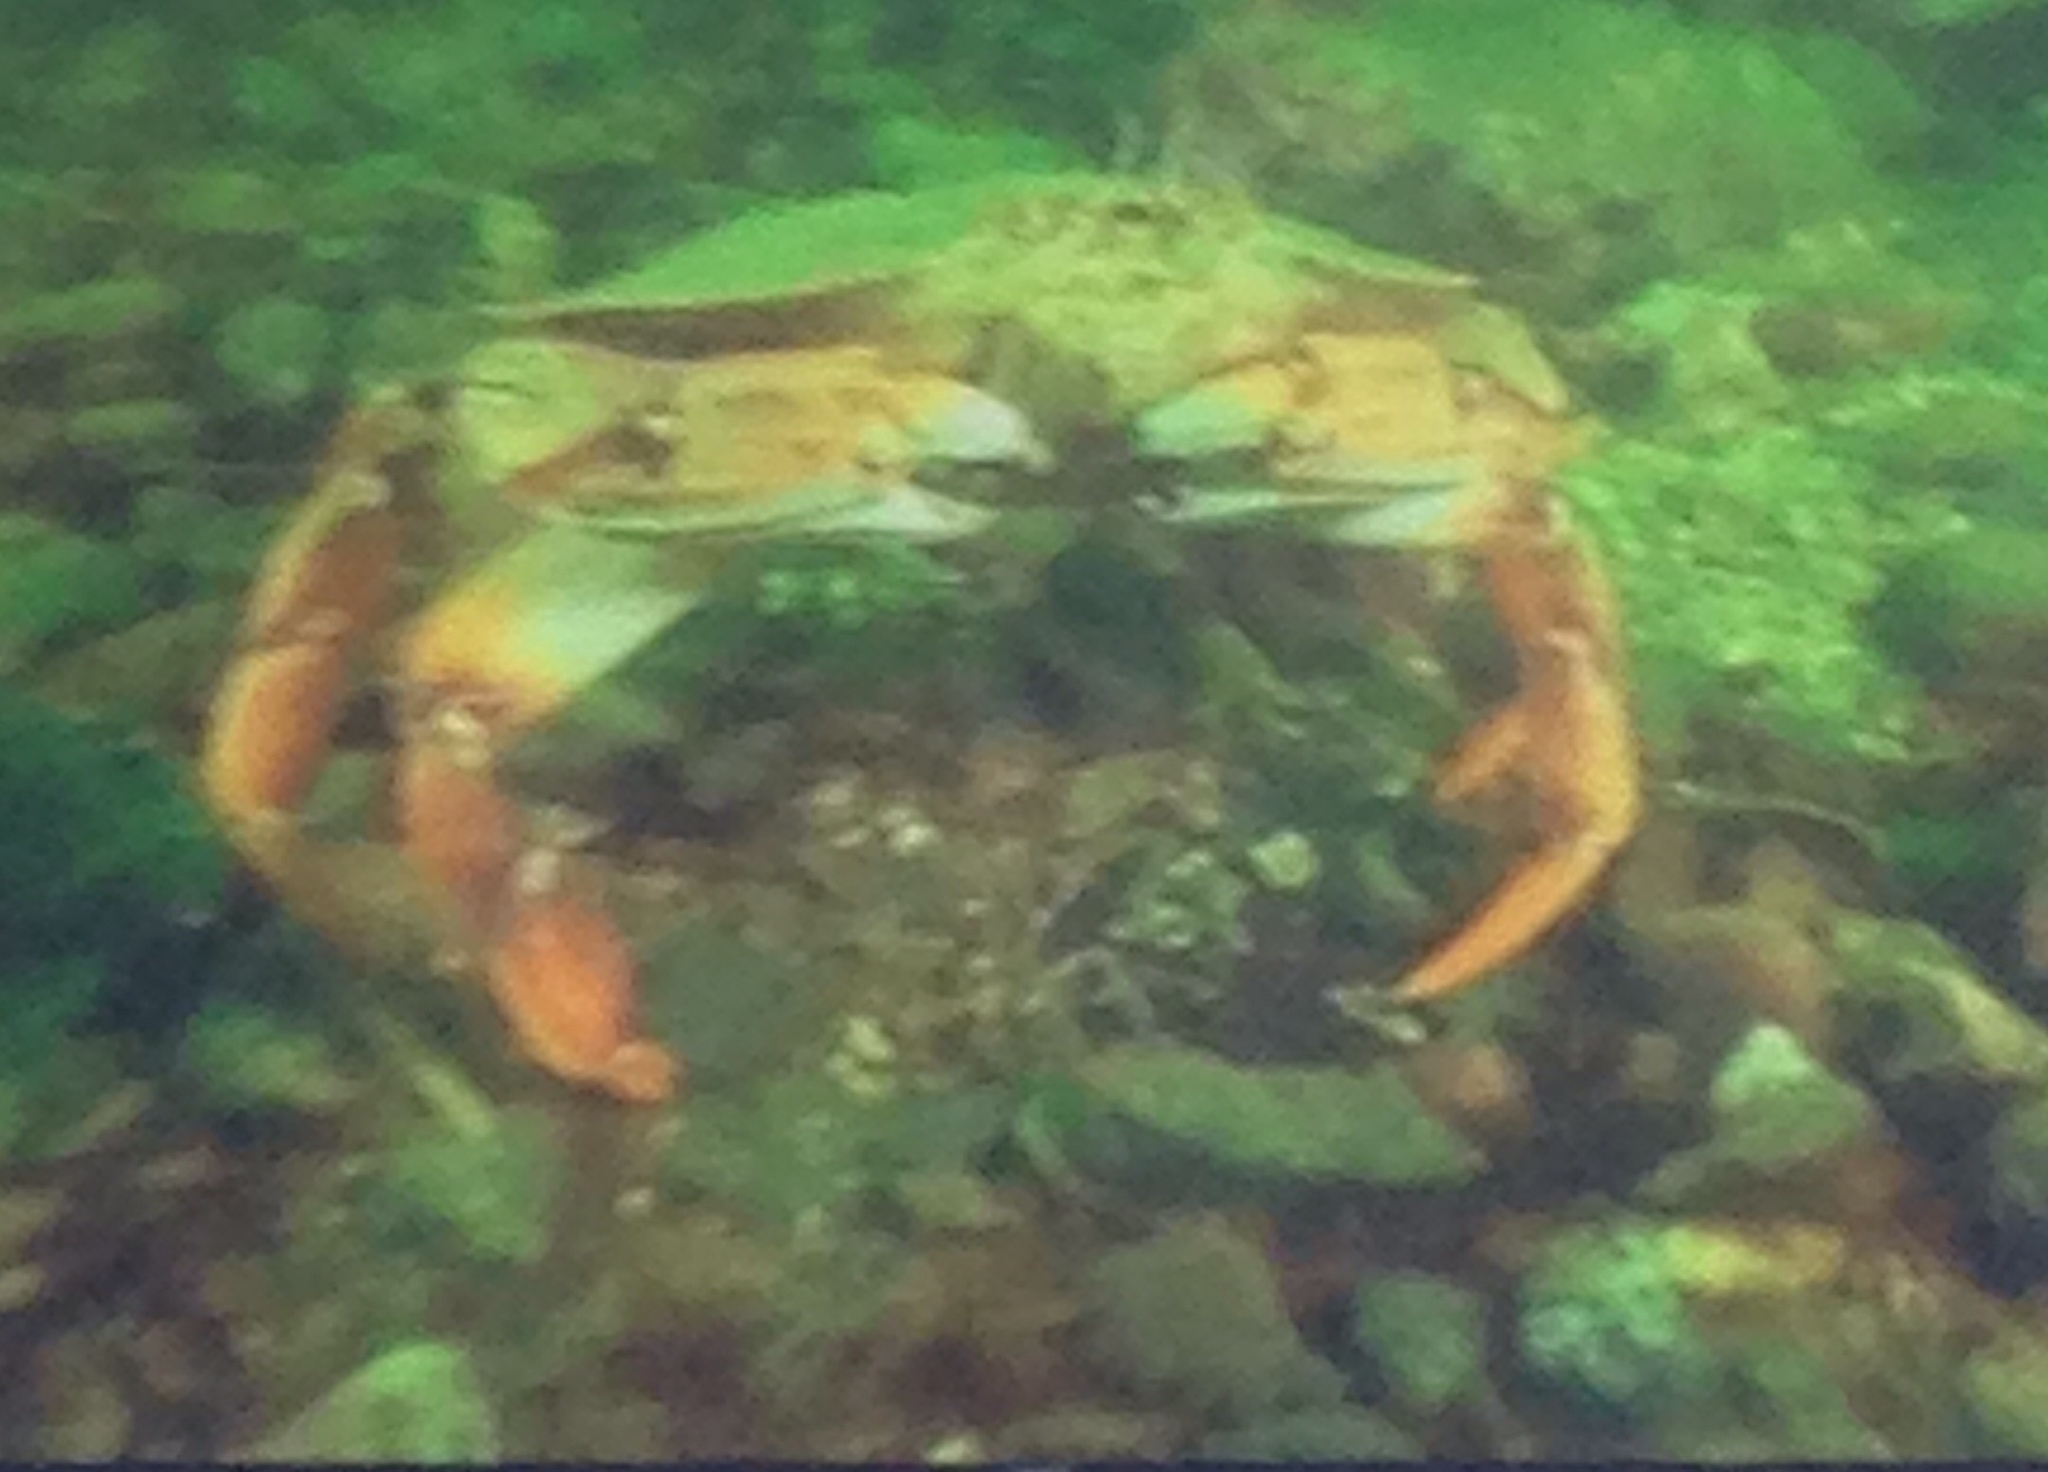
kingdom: Animalia
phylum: Arthropoda
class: Malacostraca
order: Decapoda
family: Cancridae
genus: Cancer
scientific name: Cancer irroratus
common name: Atlantic rock crab
